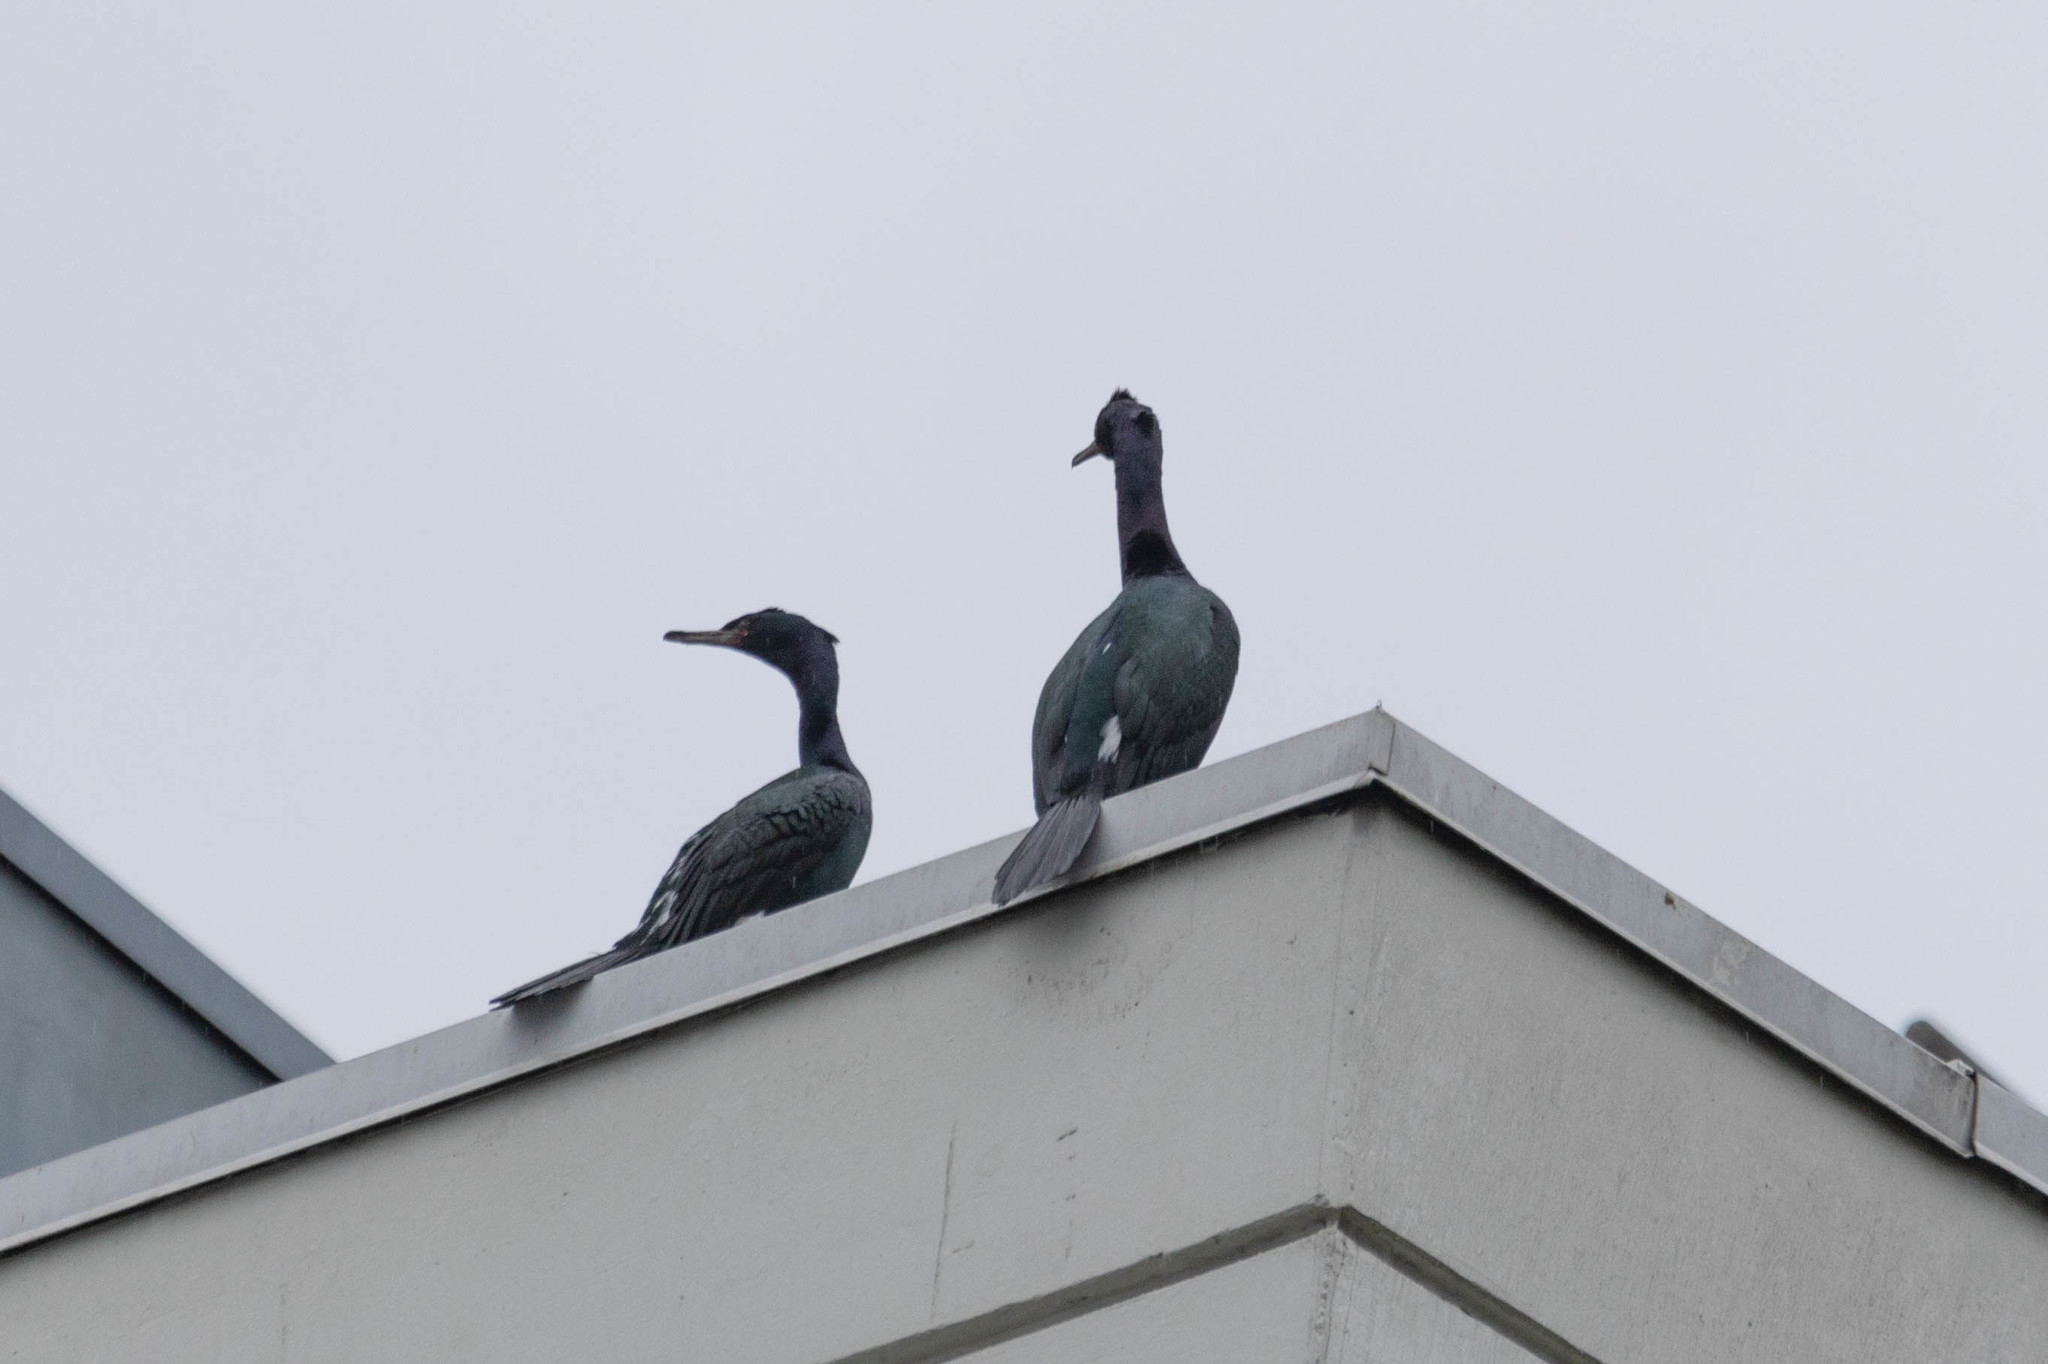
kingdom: Animalia
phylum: Chordata
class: Aves
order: Suliformes
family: Phalacrocoracidae
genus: Phalacrocorax
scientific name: Phalacrocorax pelagicus
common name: Pelagic cormorant
